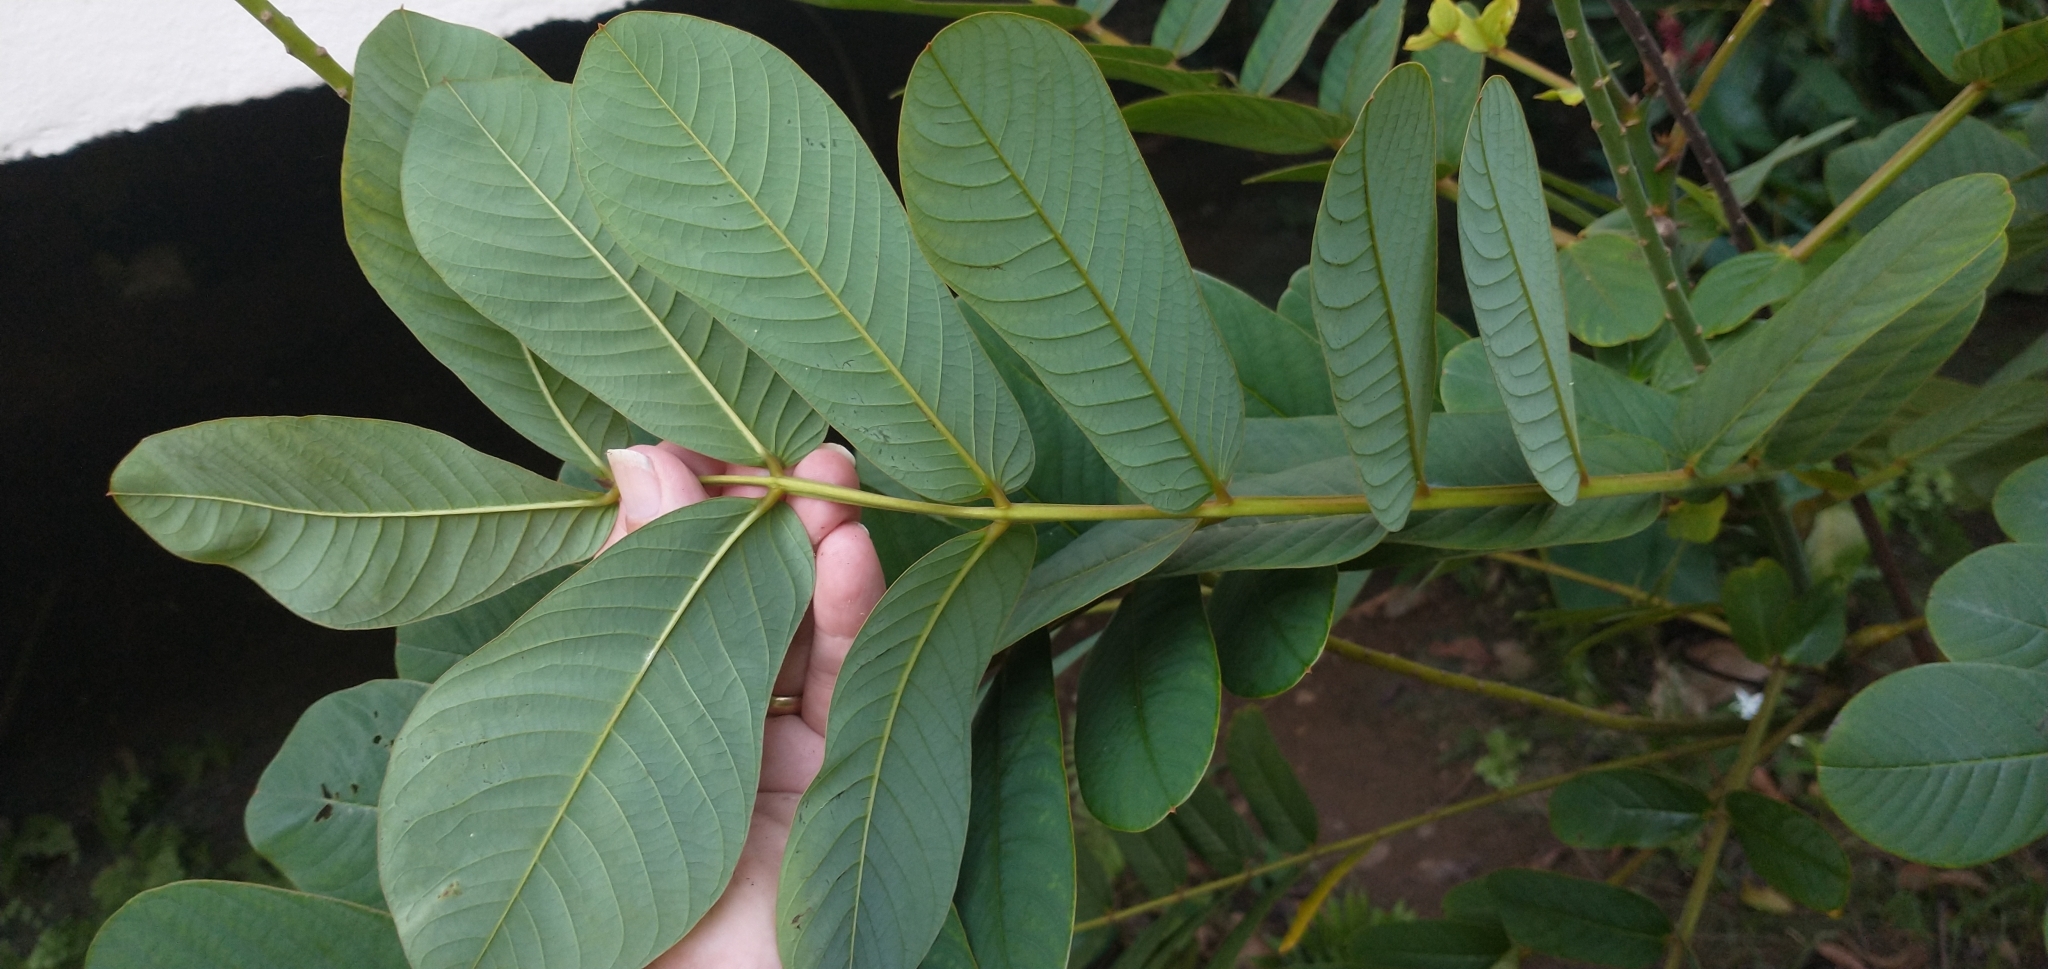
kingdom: Plantae
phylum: Tracheophyta
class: Magnoliopsida
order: Fabales
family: Fabaceae
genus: Senna
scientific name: Senna alata
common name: Emperor's candlesticks
